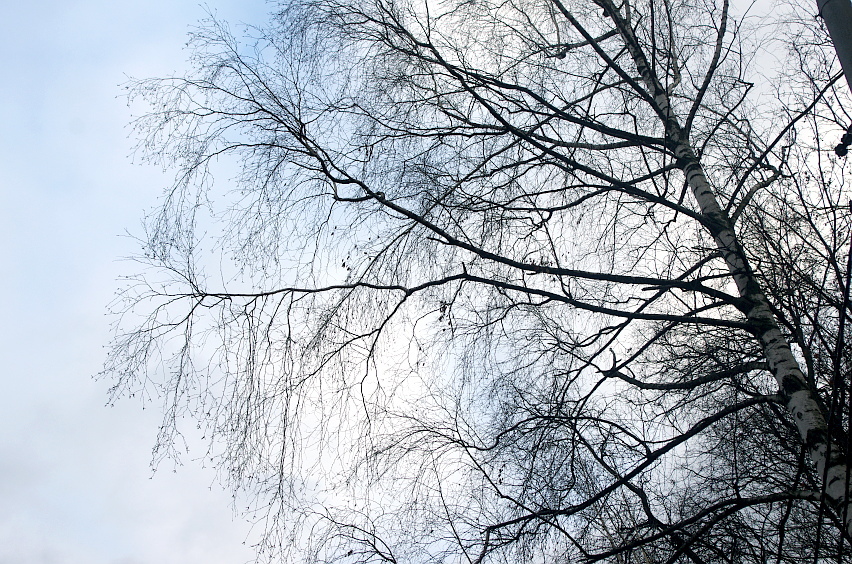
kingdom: Plantae
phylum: Tracheophyta
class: Magnoliopsida
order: Fagales
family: Betulaceae
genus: Betula
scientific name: Betula pendula
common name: Silver birch
